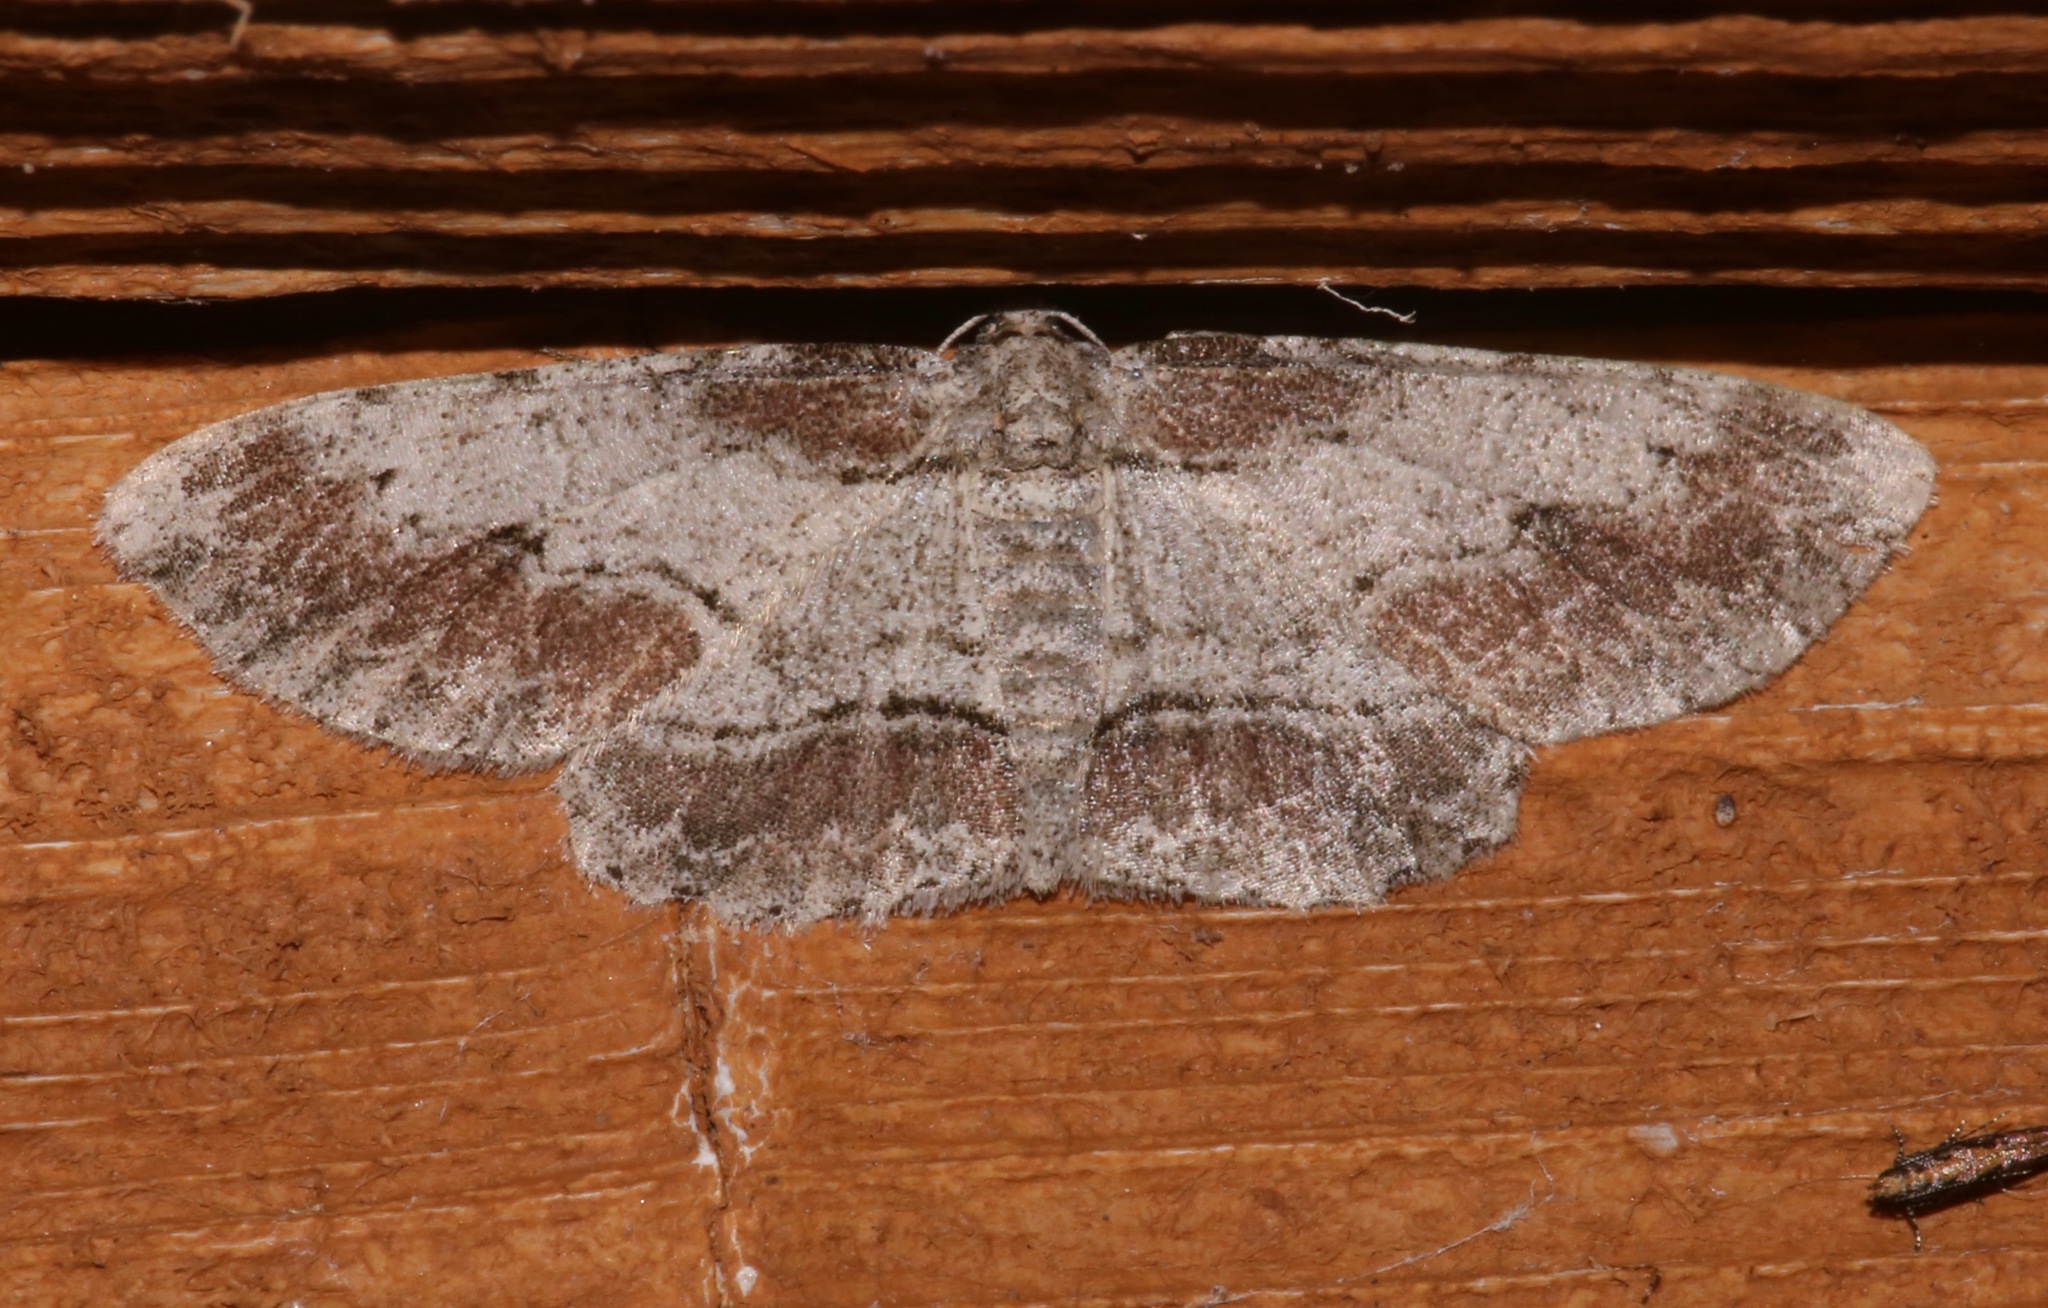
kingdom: Animalia
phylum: Arthropoda
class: Insecta
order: Lepidoptera
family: Geometridae
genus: Iridopsis
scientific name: Iridopsis pergracilis
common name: Cypress looper
